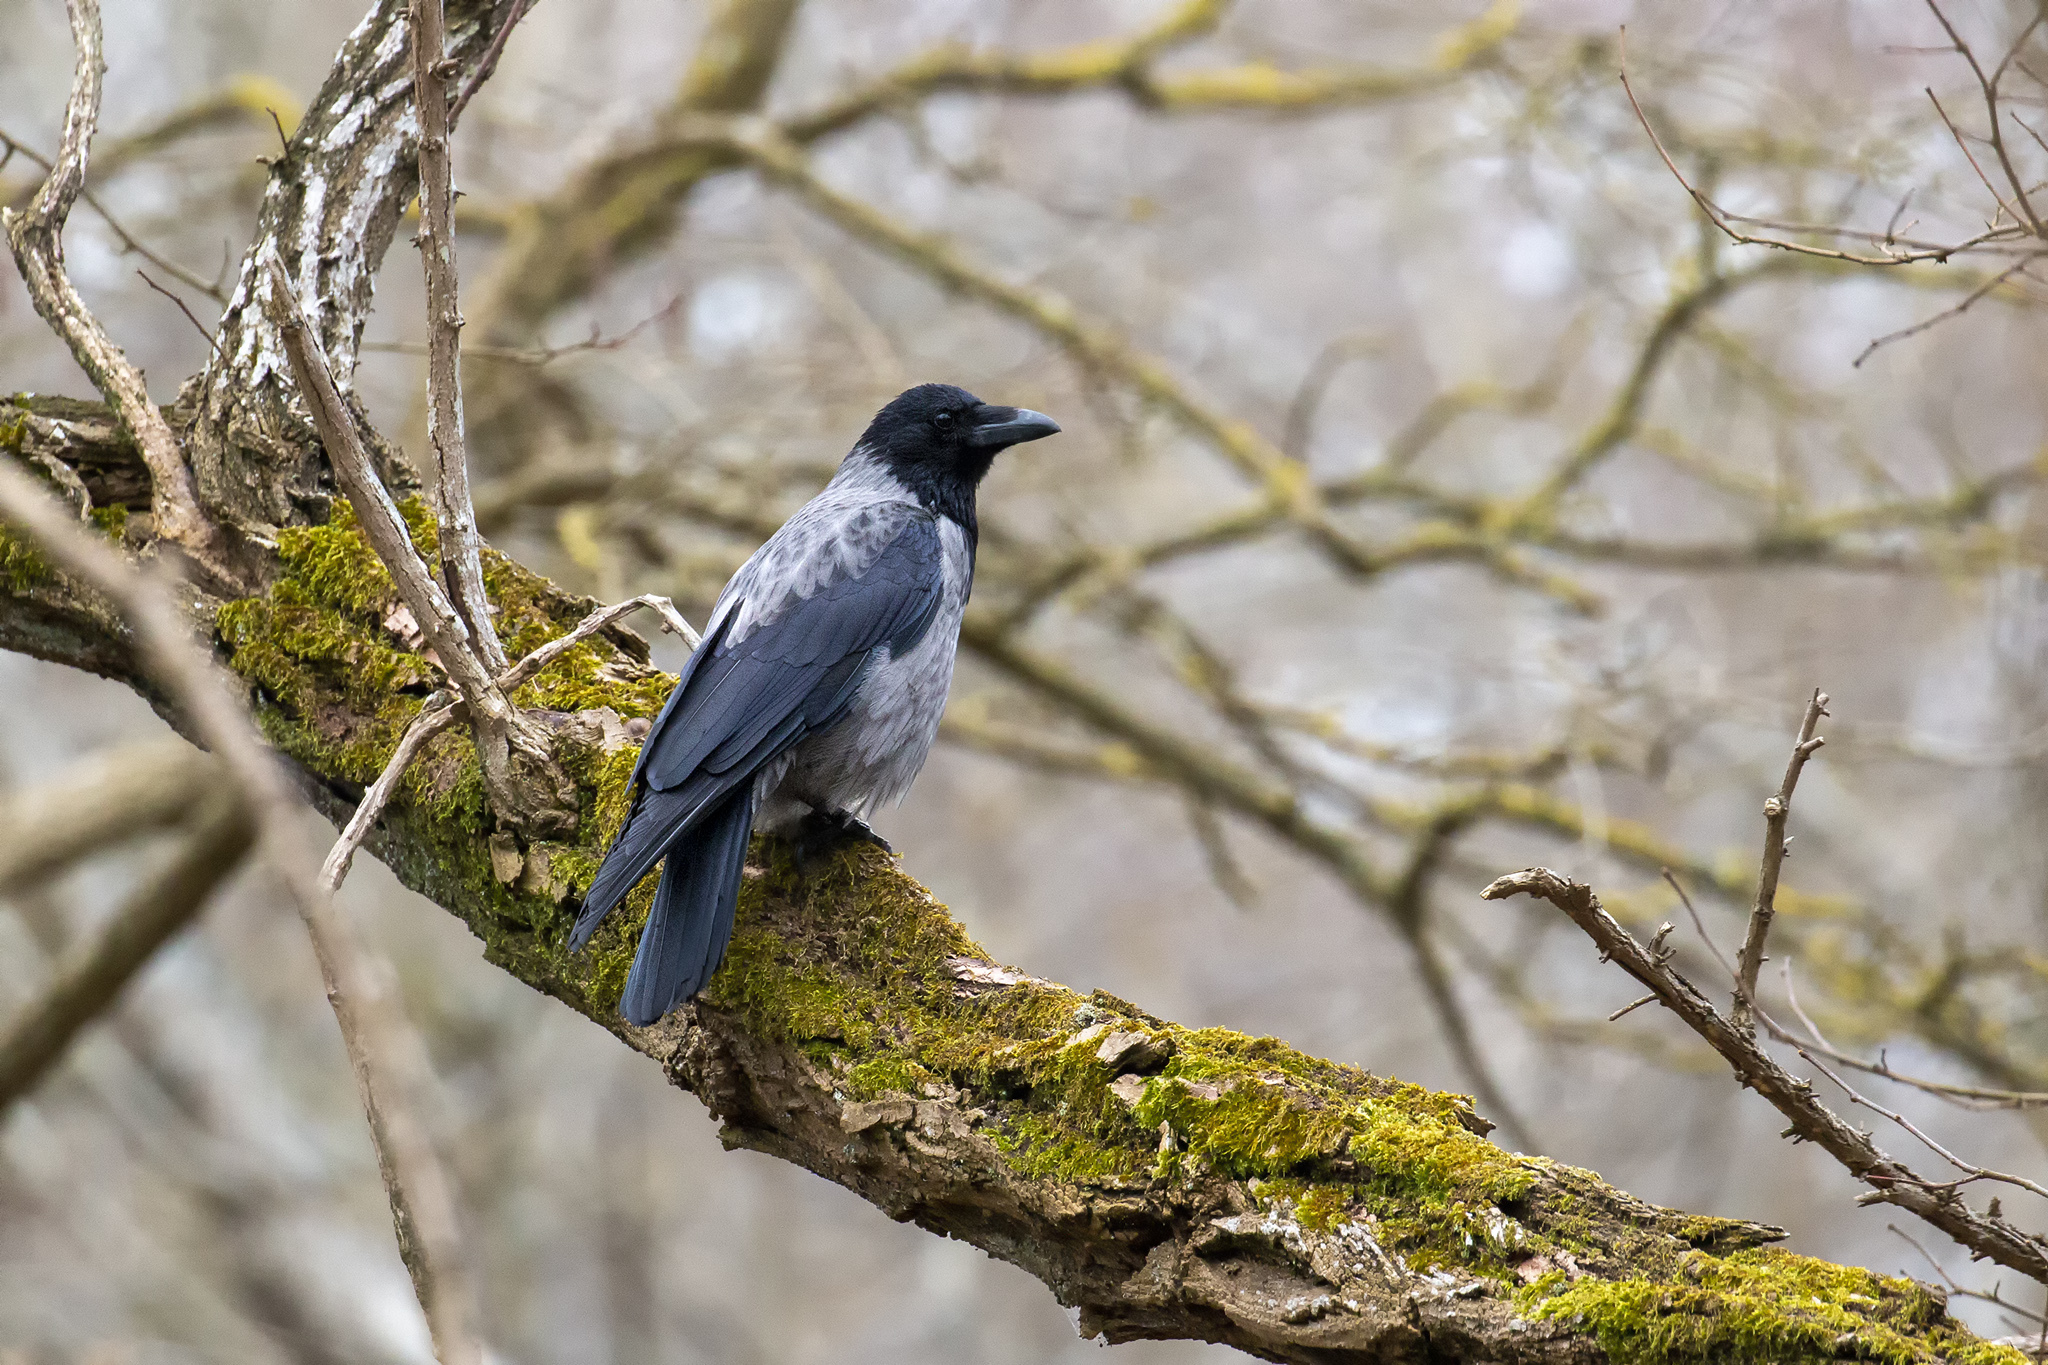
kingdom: Animalia
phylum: Chordata
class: Aves
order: Passeriformes
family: Corvidae
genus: Corvus
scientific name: Corvus
